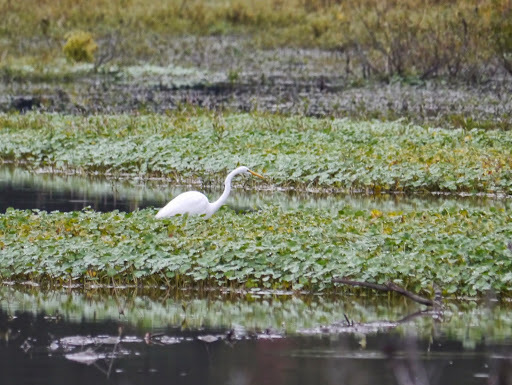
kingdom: Animalia
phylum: Chordata
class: Aves
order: Pelecaniformes
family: Ardeidae
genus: Ardea
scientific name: Ardea alba
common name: Great egret
